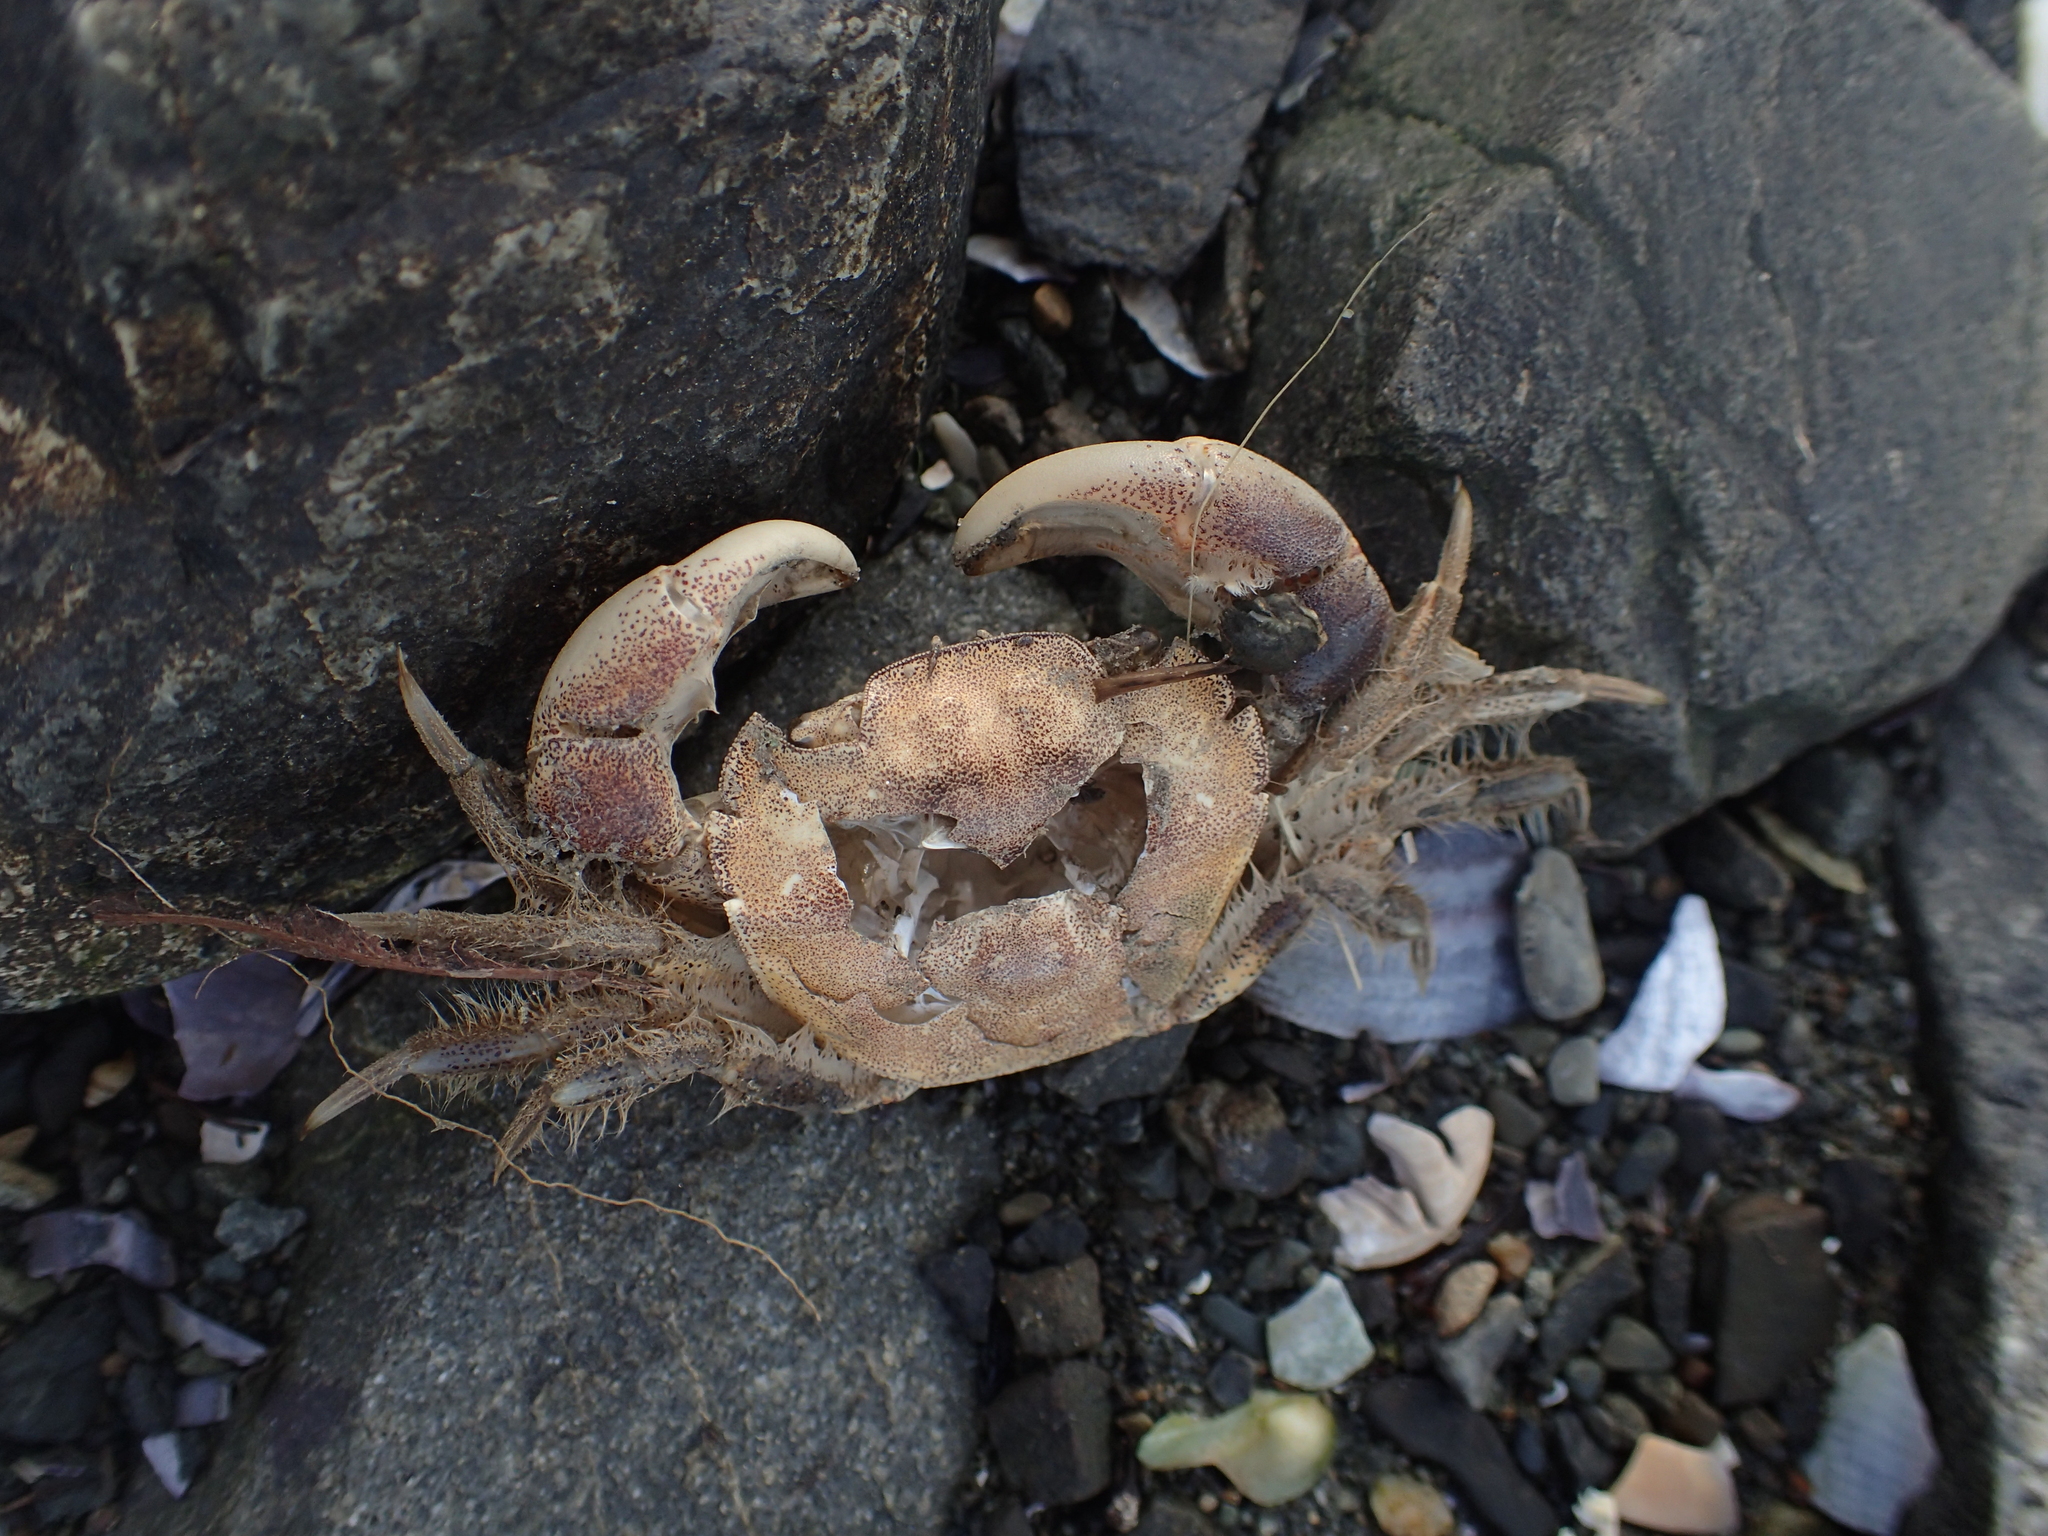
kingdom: Animalia
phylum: Arthropoda
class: Malacostraca
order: Decapoda
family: Varunidae
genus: Hemigrapsus
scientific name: Hemigrapsus crenulatus
